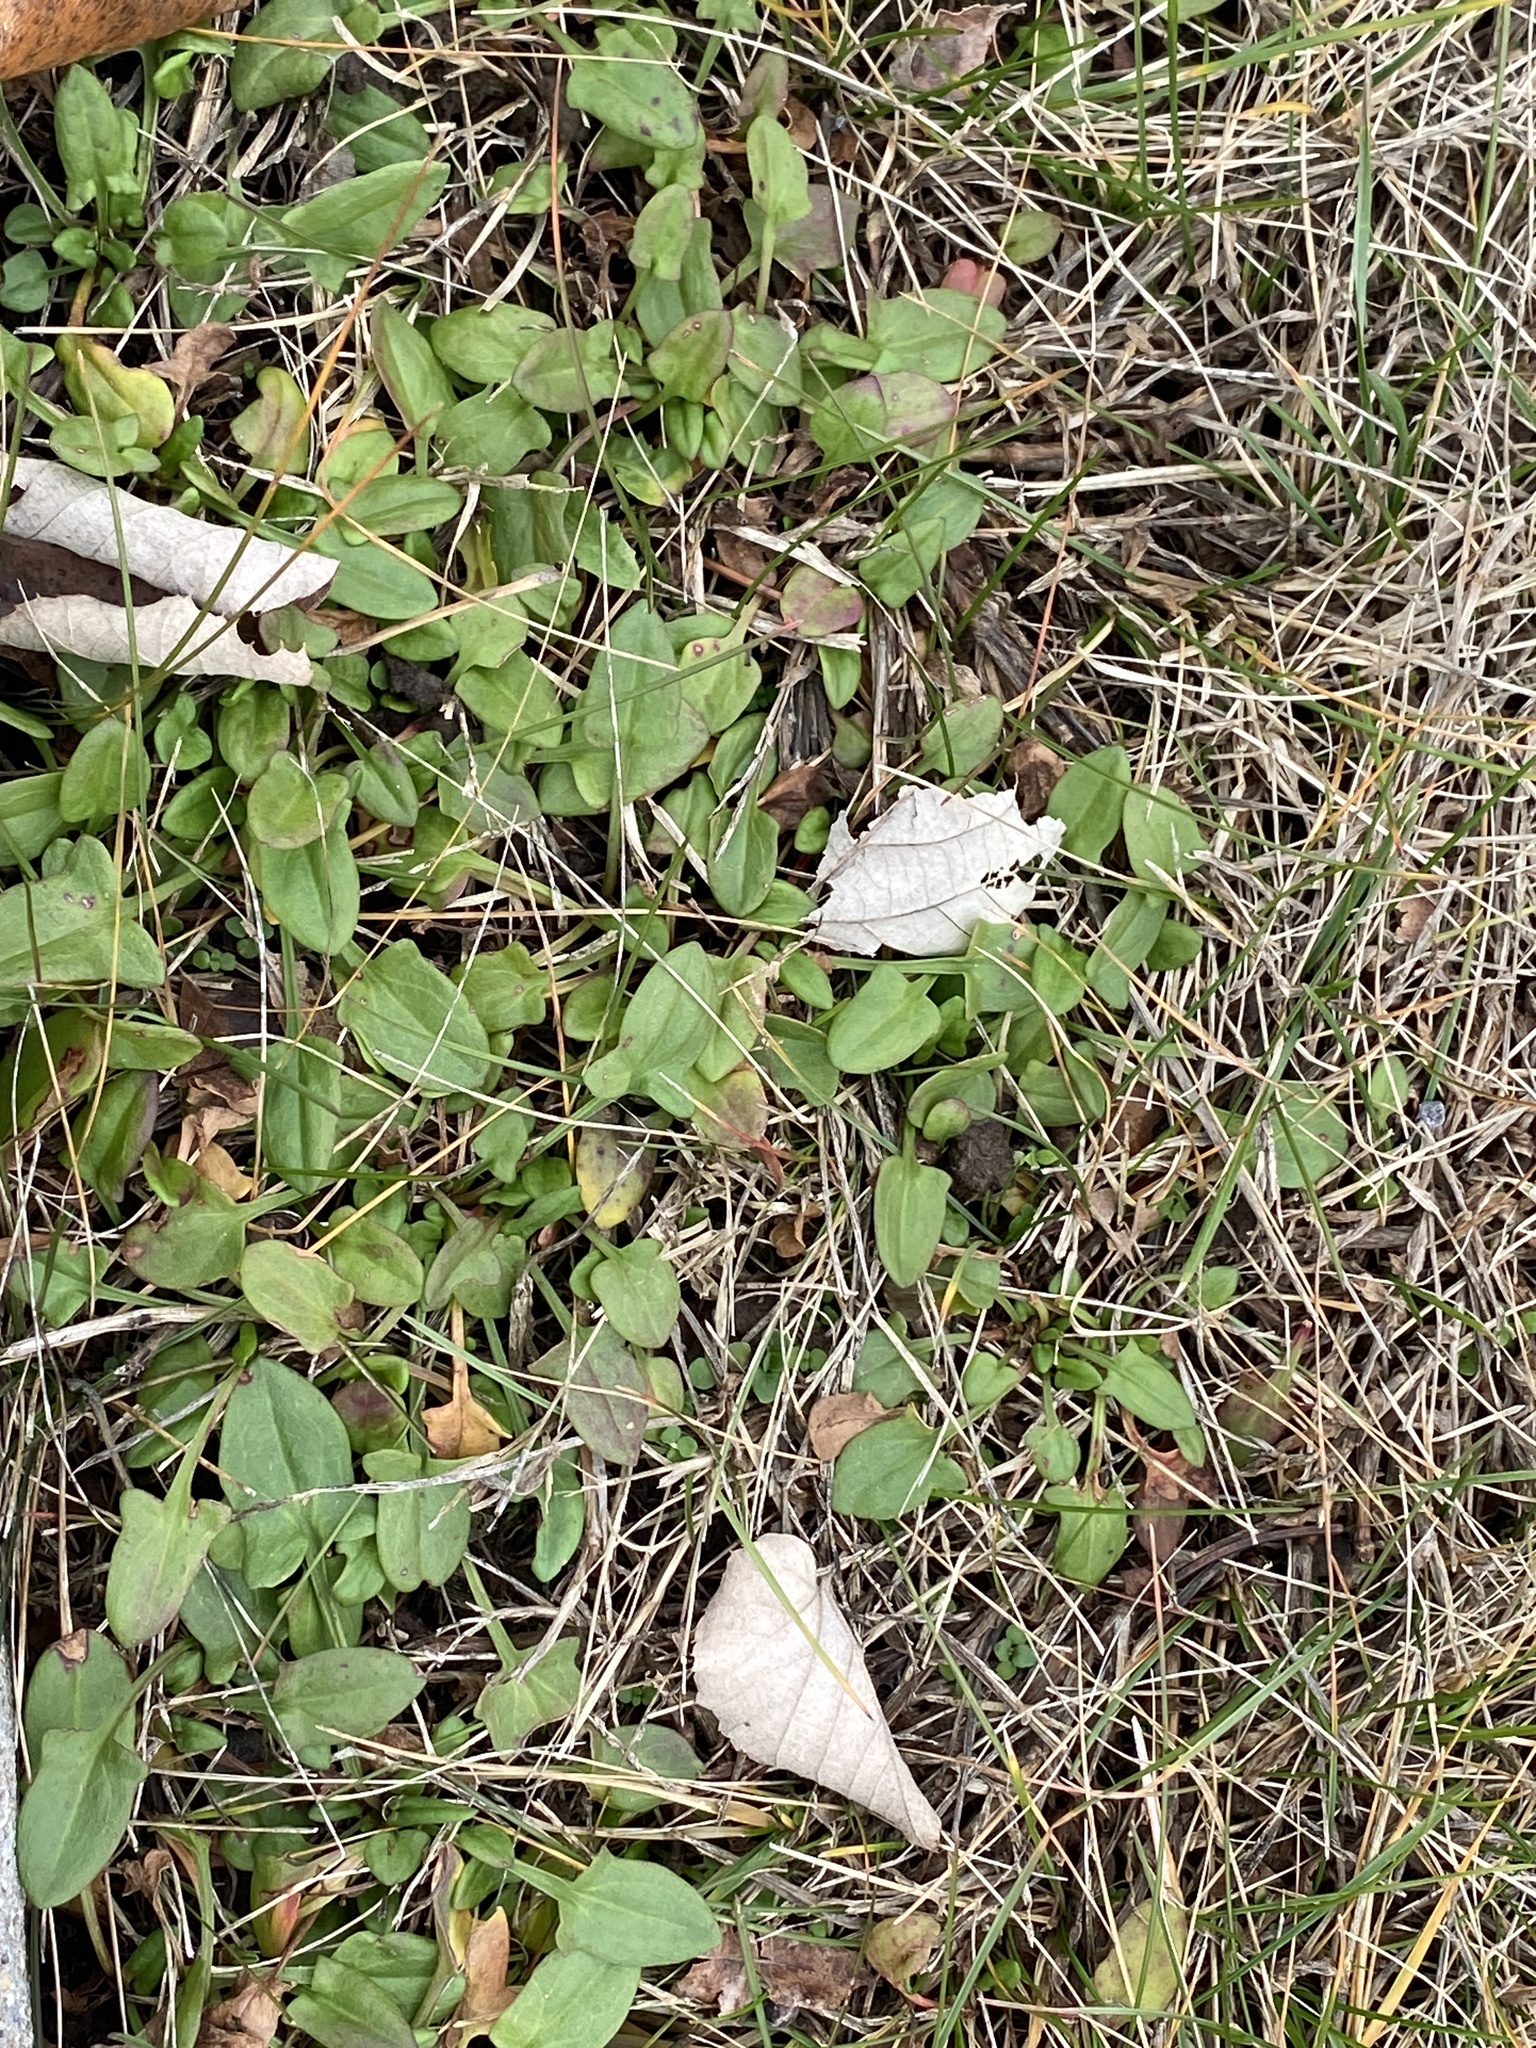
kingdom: Plantae
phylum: Tracheophyta
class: Magnoliopsida
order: Caryophyllales
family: Polygonaceae
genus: Rumex
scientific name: Rumex acetosella
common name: Common sheep sorrel
